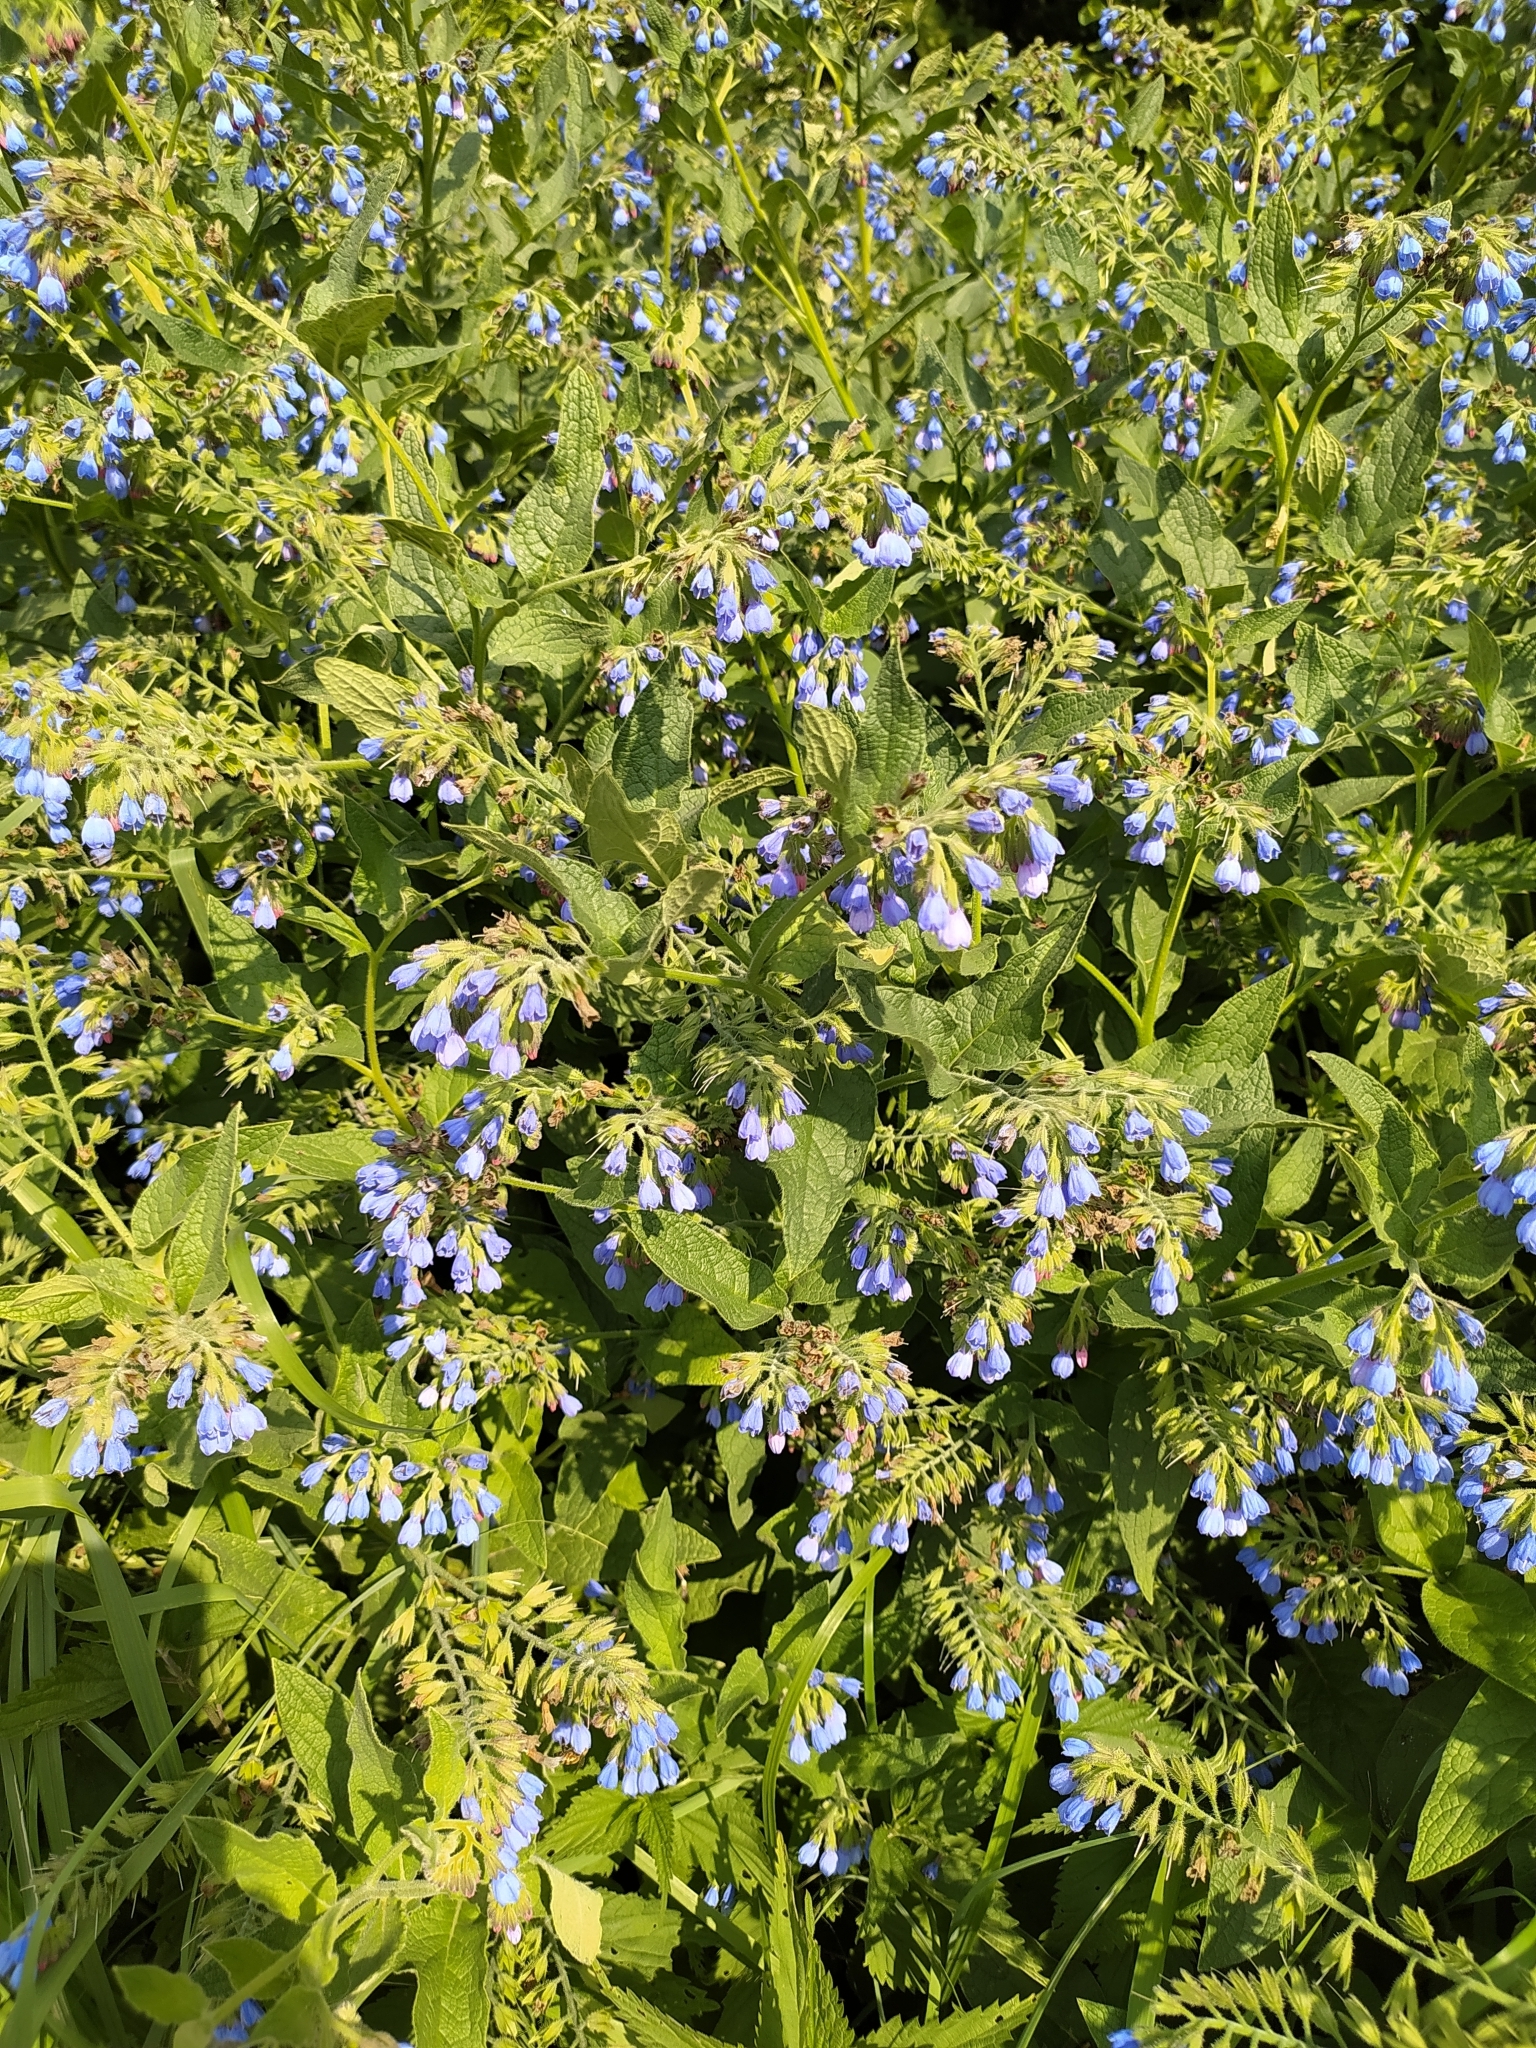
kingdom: Plantae
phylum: Tracheophyta
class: Magnoliopsida
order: Boraginales
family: Boraginaceae
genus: Symphytum
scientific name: Symphytum caucasicum
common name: Caucasian comfrey
